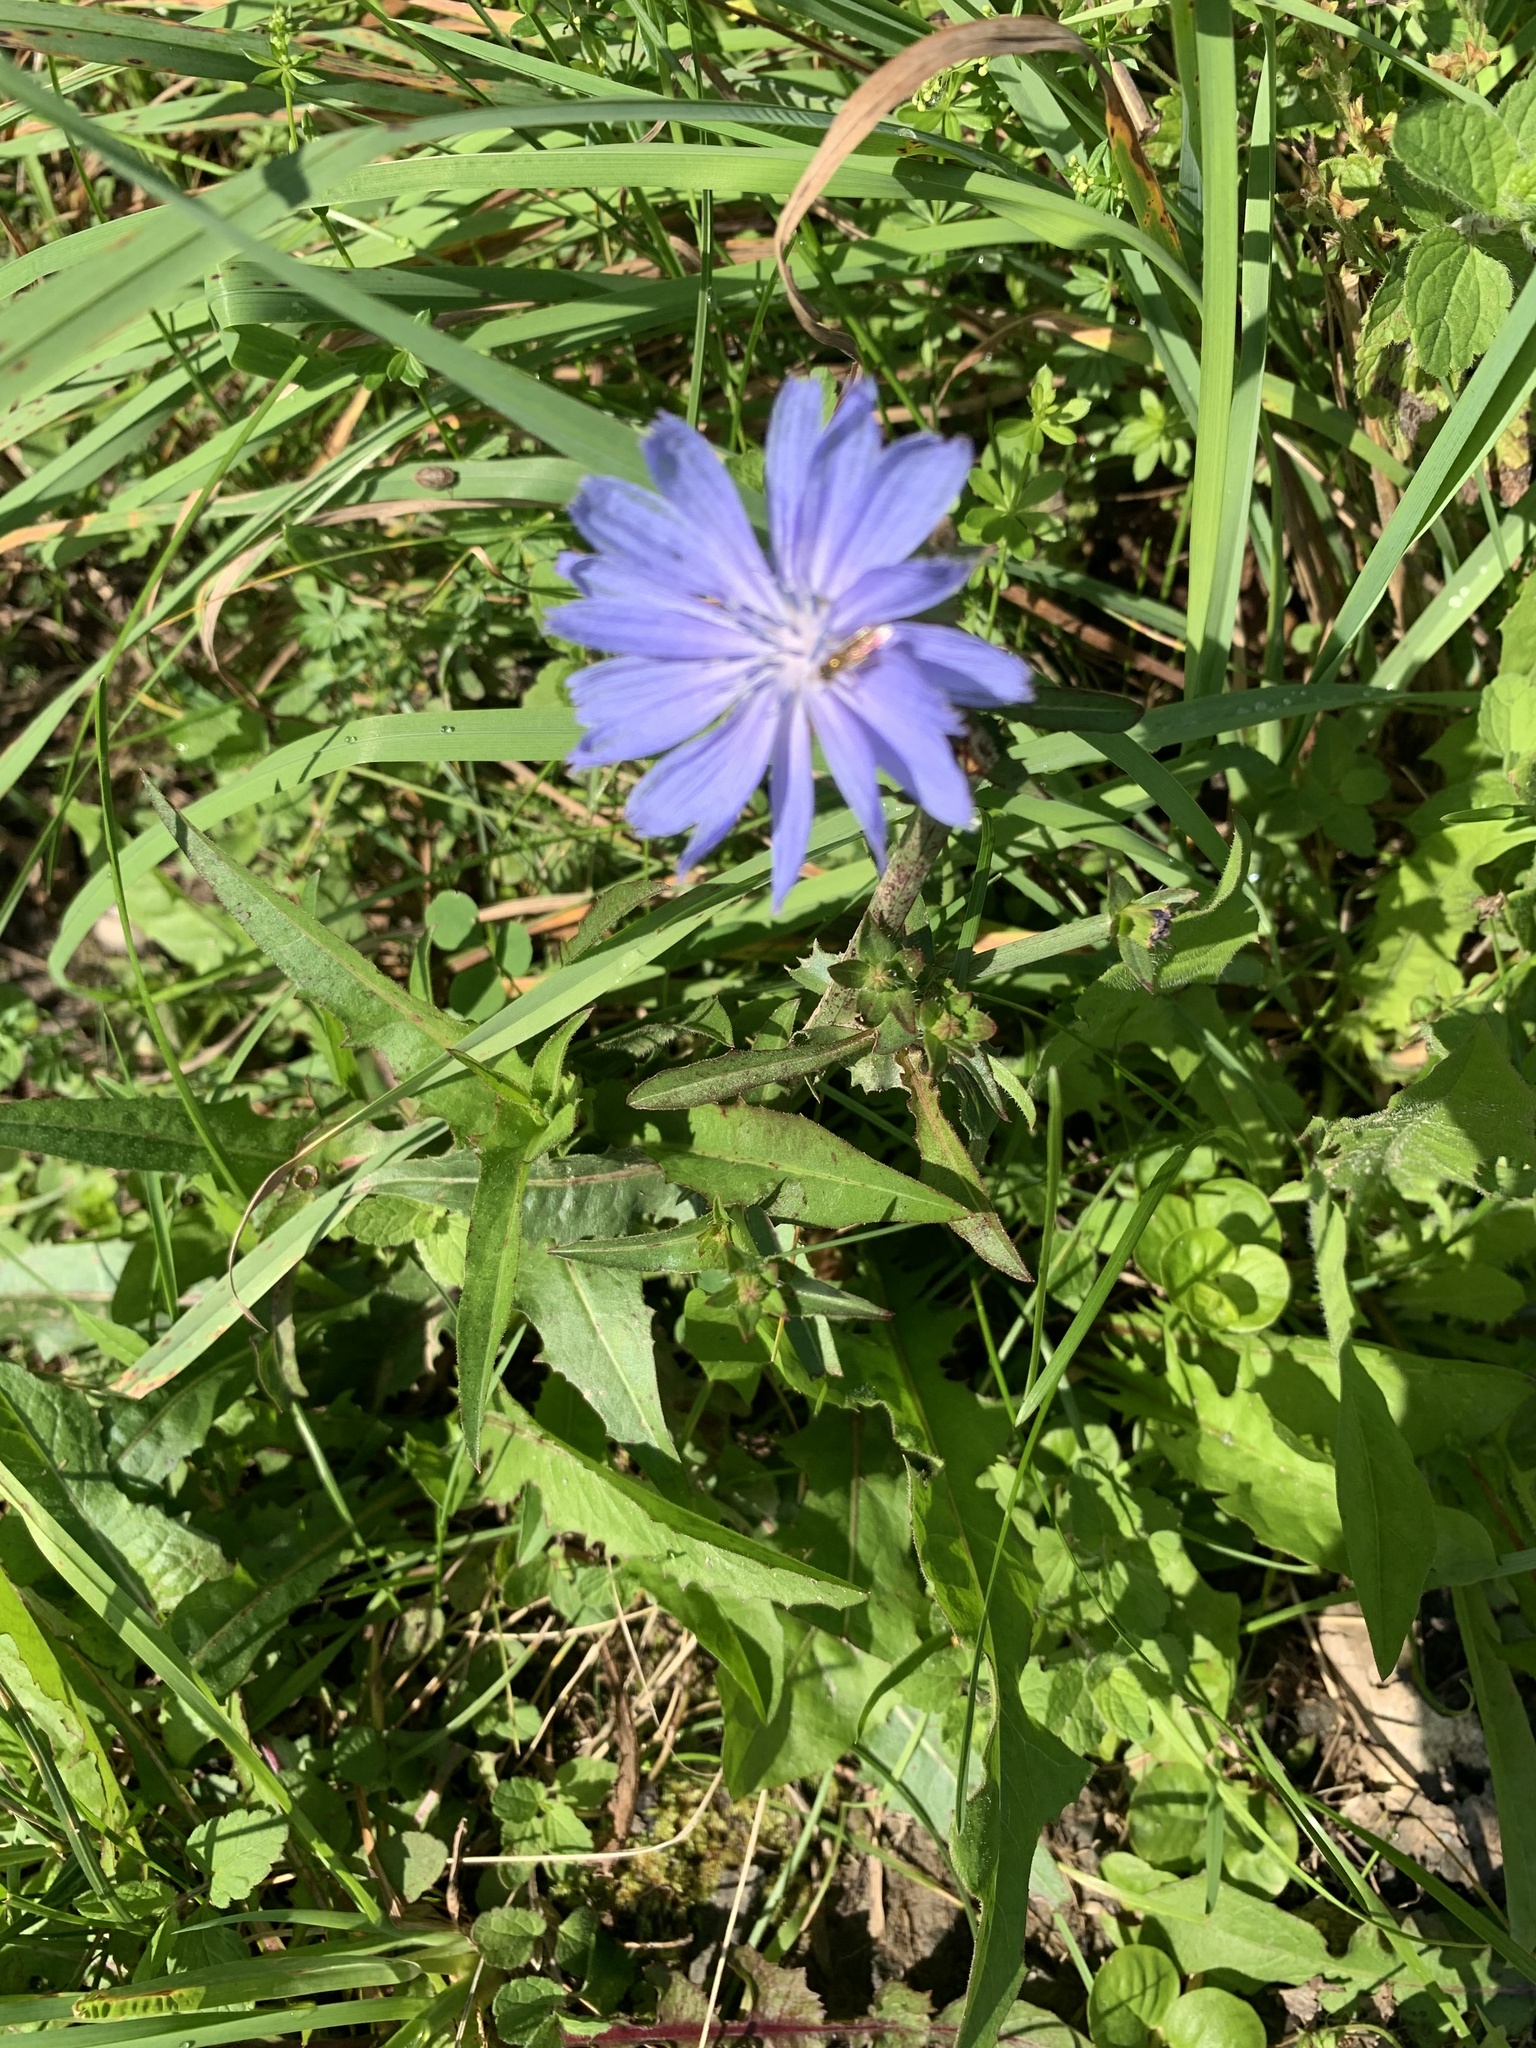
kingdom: Plantae
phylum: Tracheophyta
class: Magnoliopsida
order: Asterales
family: Asteraceae
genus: Cichorium
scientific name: Cichorium intybus
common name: Chicory
